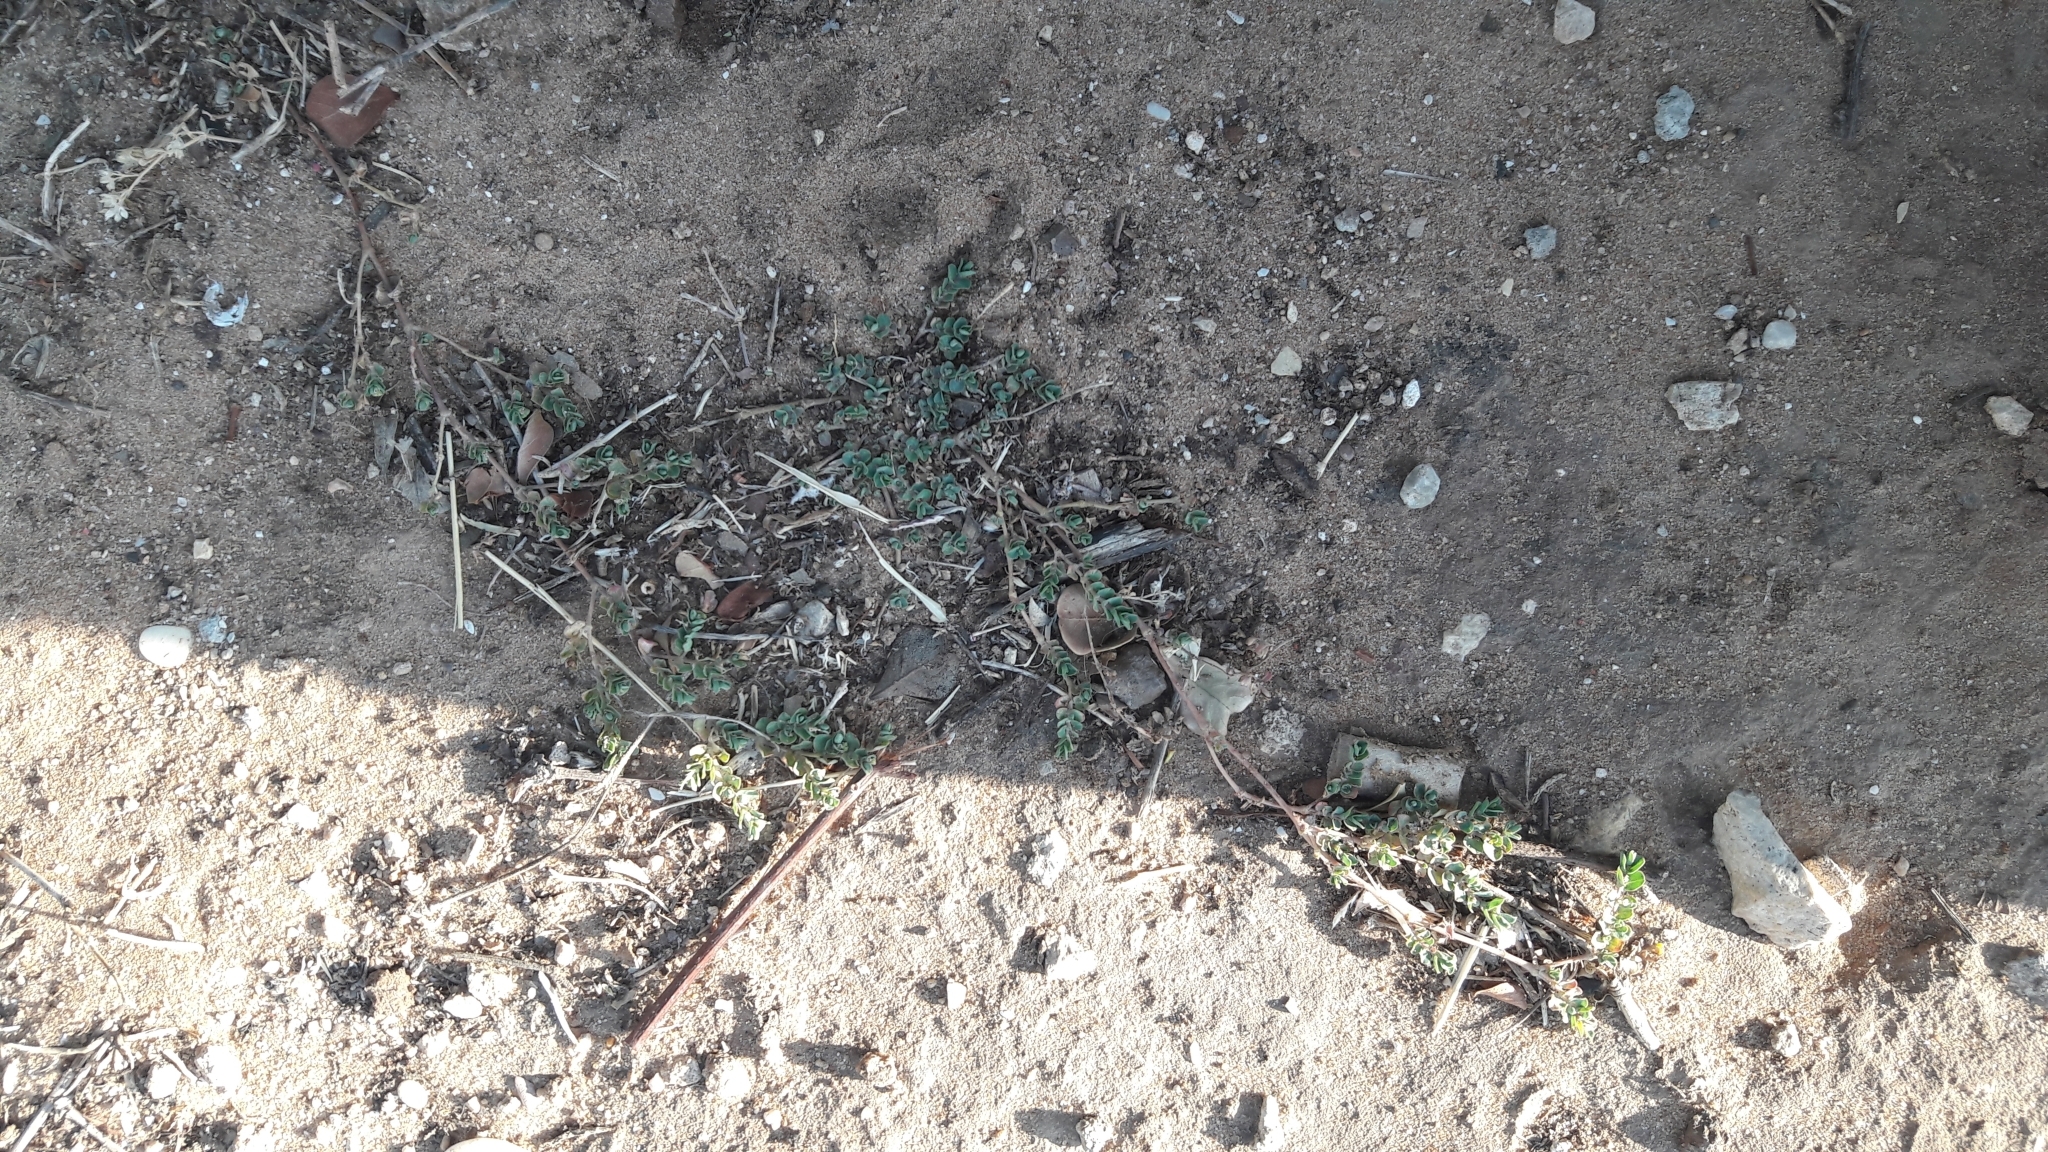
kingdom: Plantae
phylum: Tracheophyta
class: Magnoliopsida
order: Malpighiales
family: Euphorbiaceae
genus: Euphorbia
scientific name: Euphorbia serpens
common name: Matted sandmat
